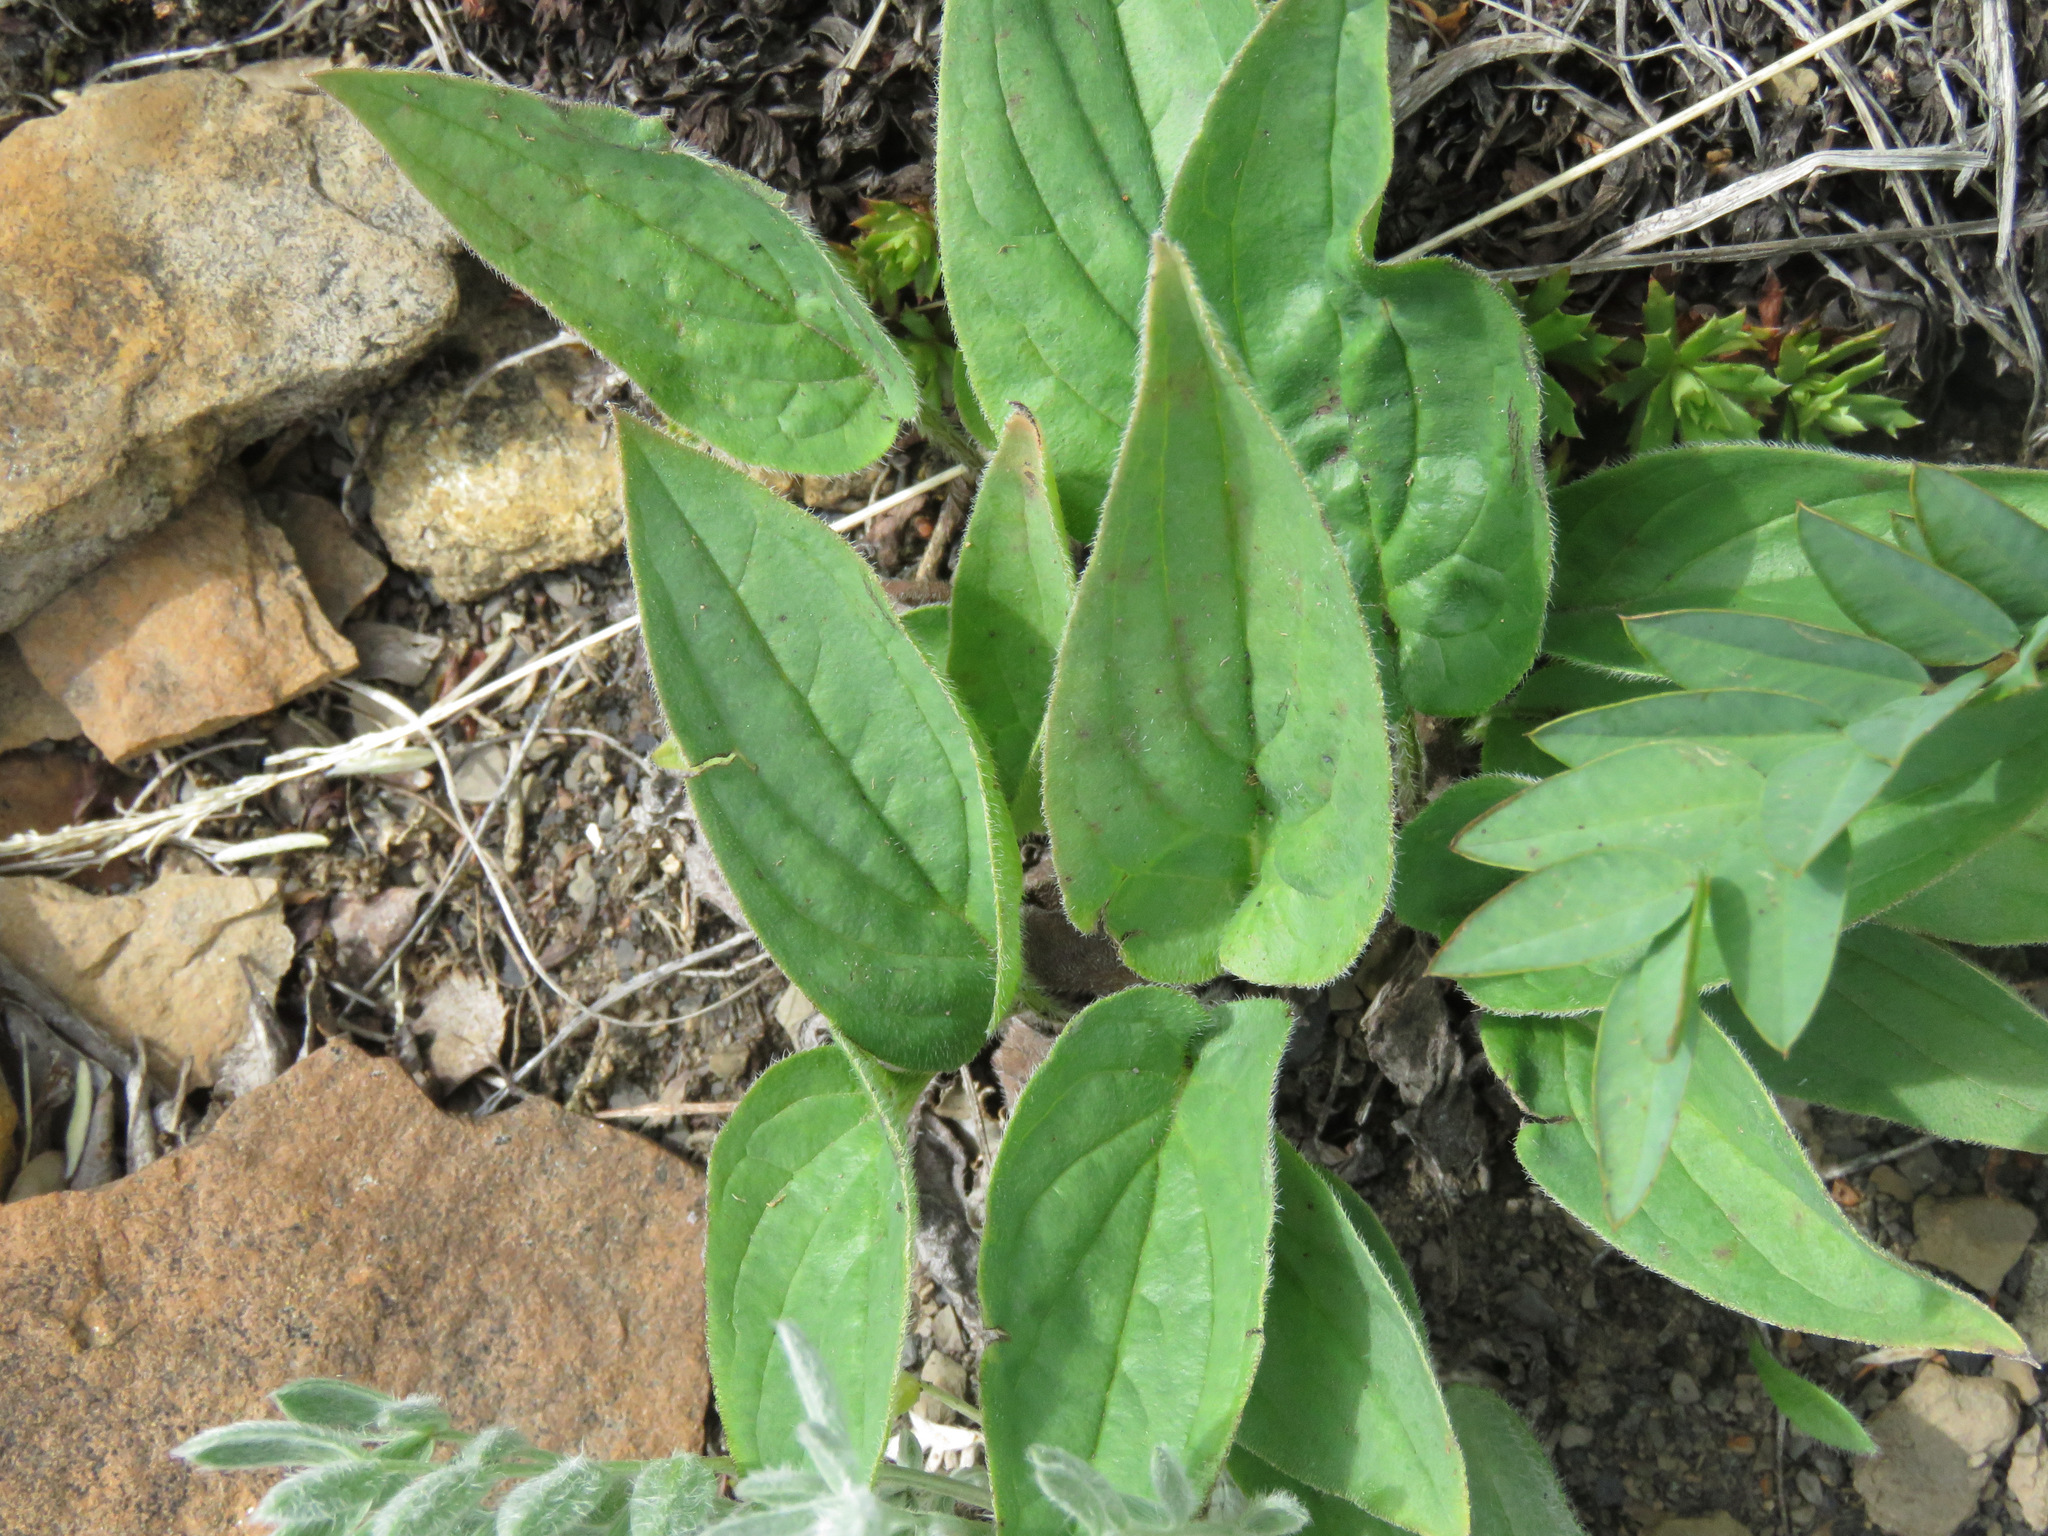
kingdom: Plantae
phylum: Tracheophyta
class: Magnoliopsida
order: Boraginales
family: Boraginaceae
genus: Mertensia
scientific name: Mertensia paniculata
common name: Panicled bluebells
